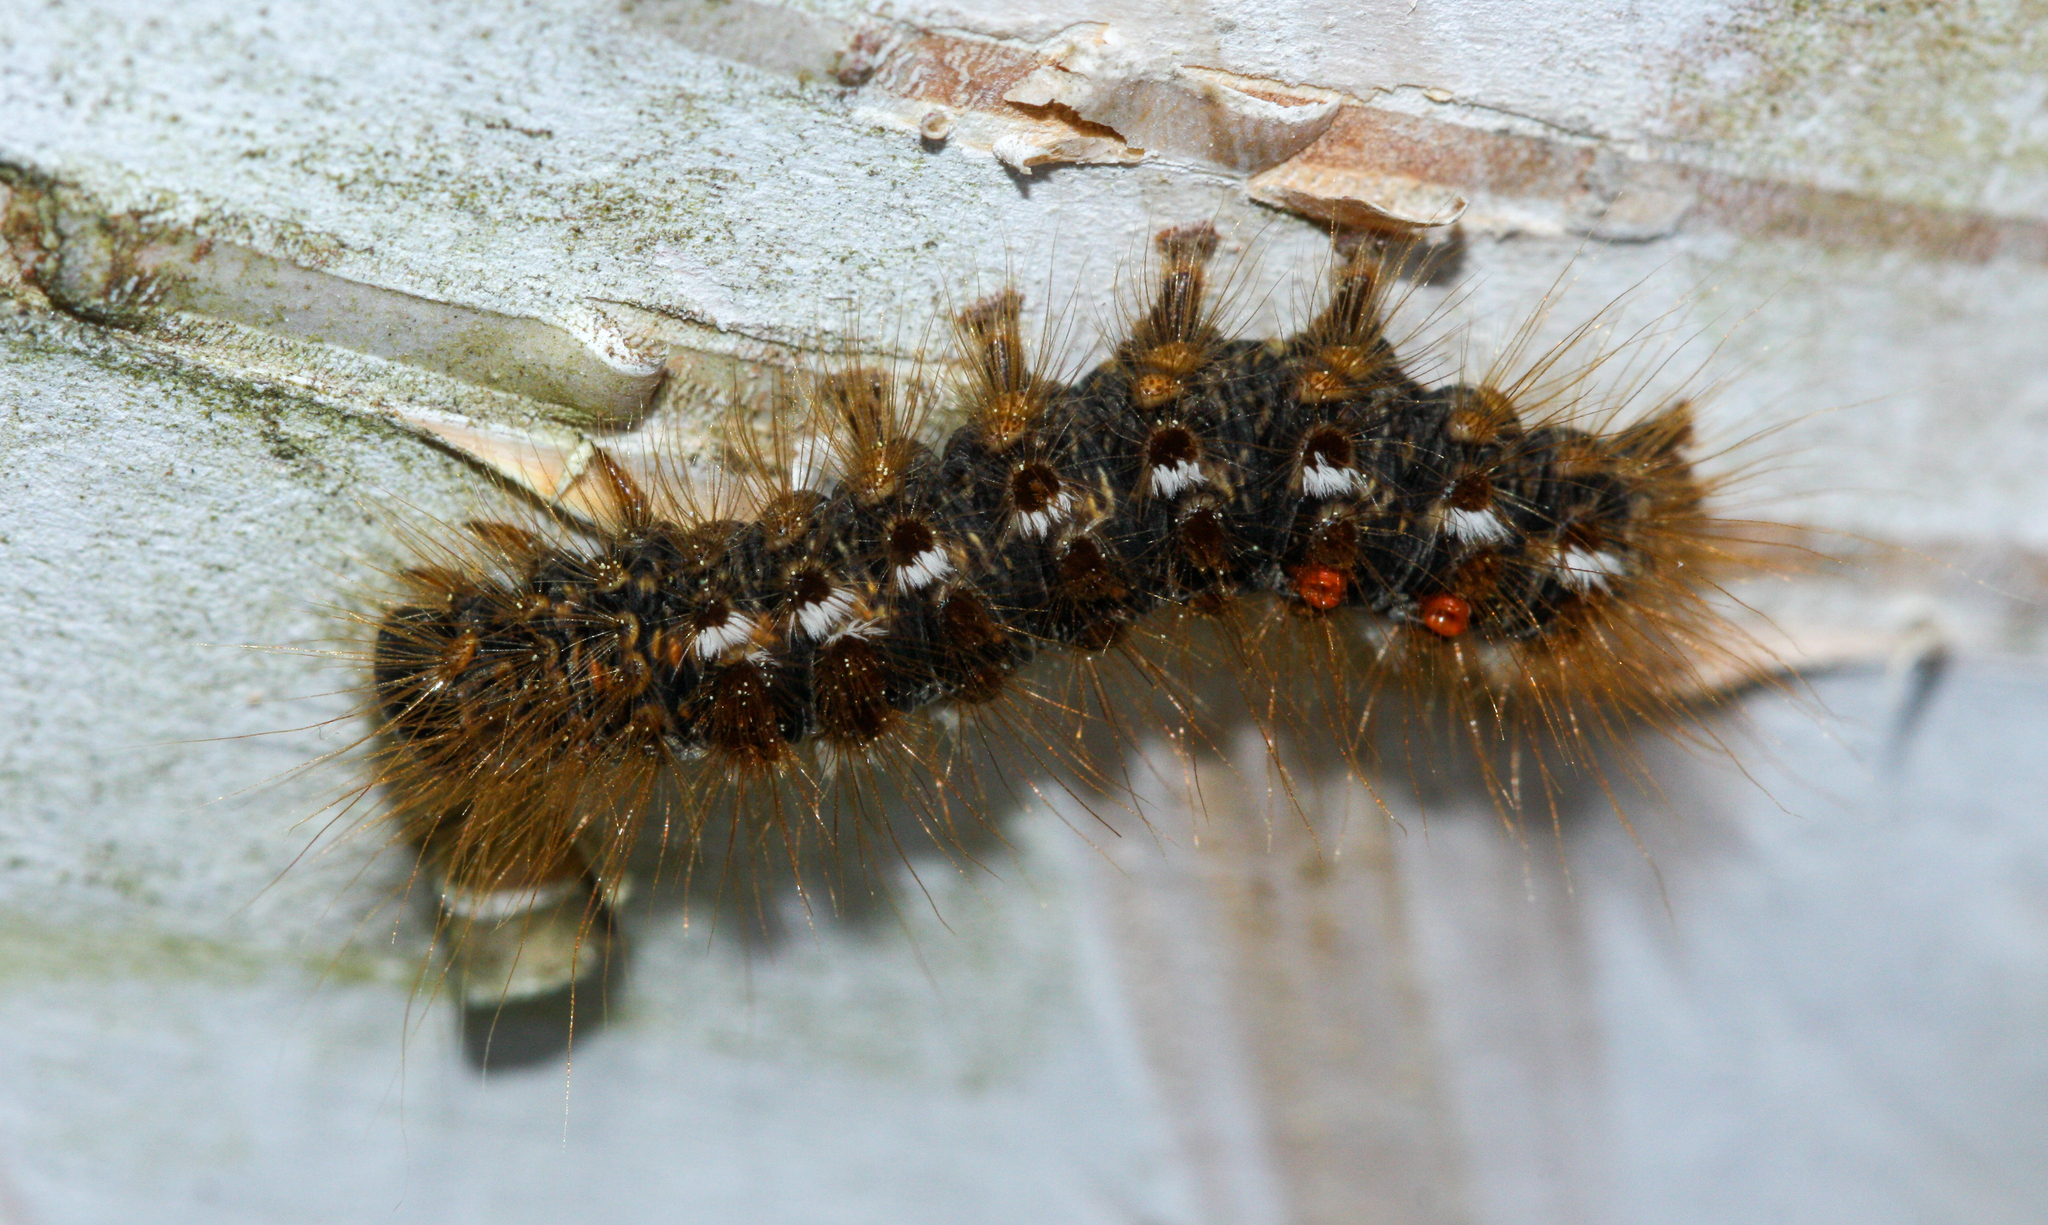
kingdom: Animalia
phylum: Arthropoda
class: Insecta
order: Lepidoptera
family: Erebidae
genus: Euproctis
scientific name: Euproctis chrysorrhoea
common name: Brown-tail
